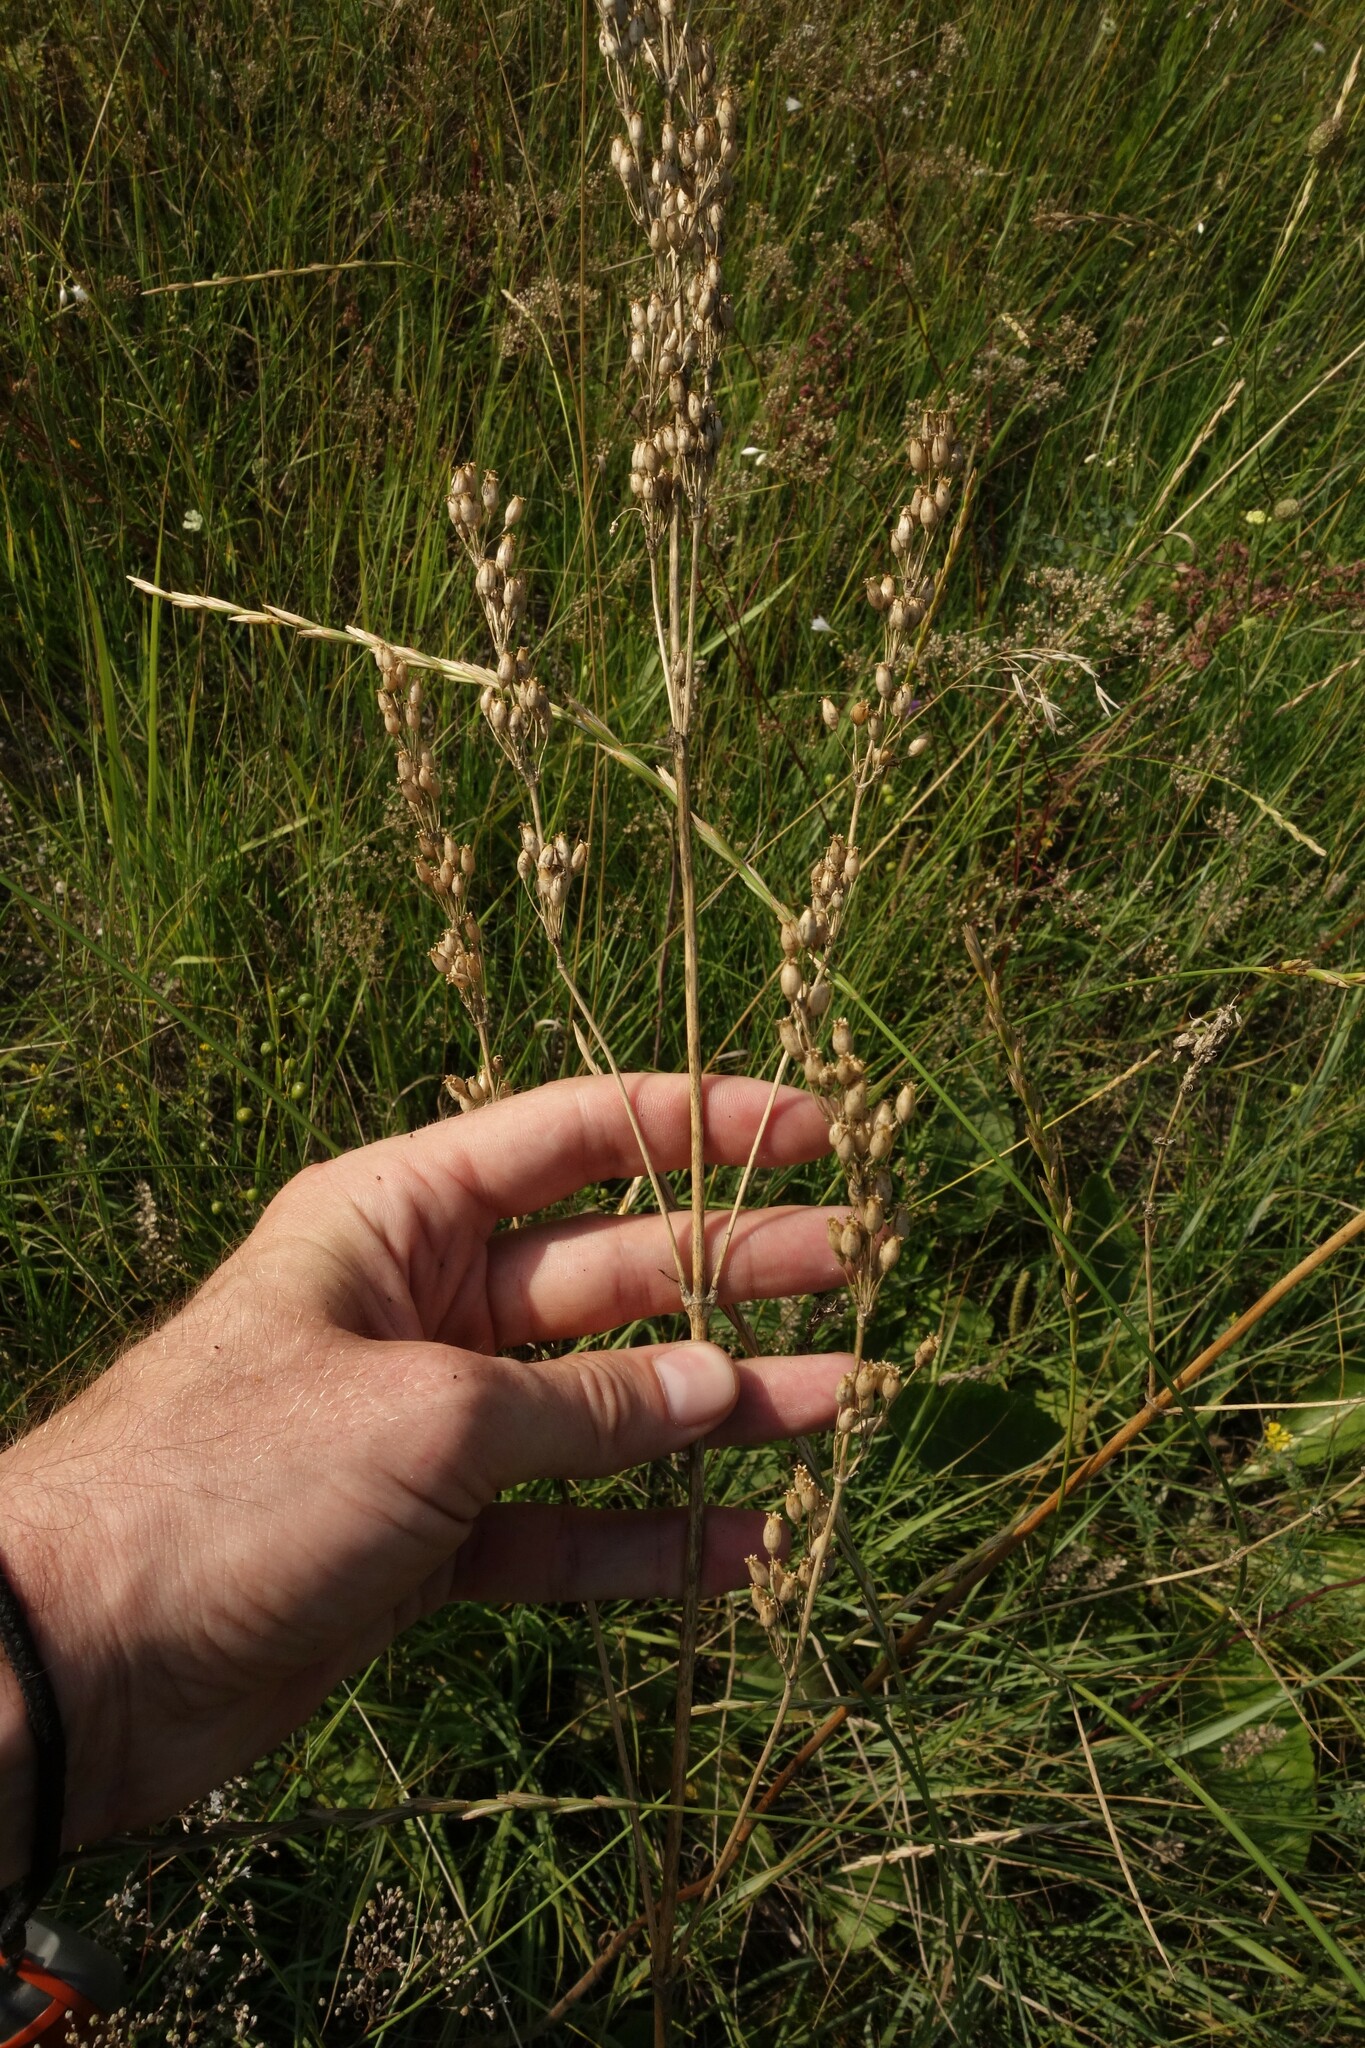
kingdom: Plantae
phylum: Tracheophyta
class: Magnoliopsida
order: Caryophyllales
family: Caryophyllaceae
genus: Silene
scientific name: Silene borysthenica
